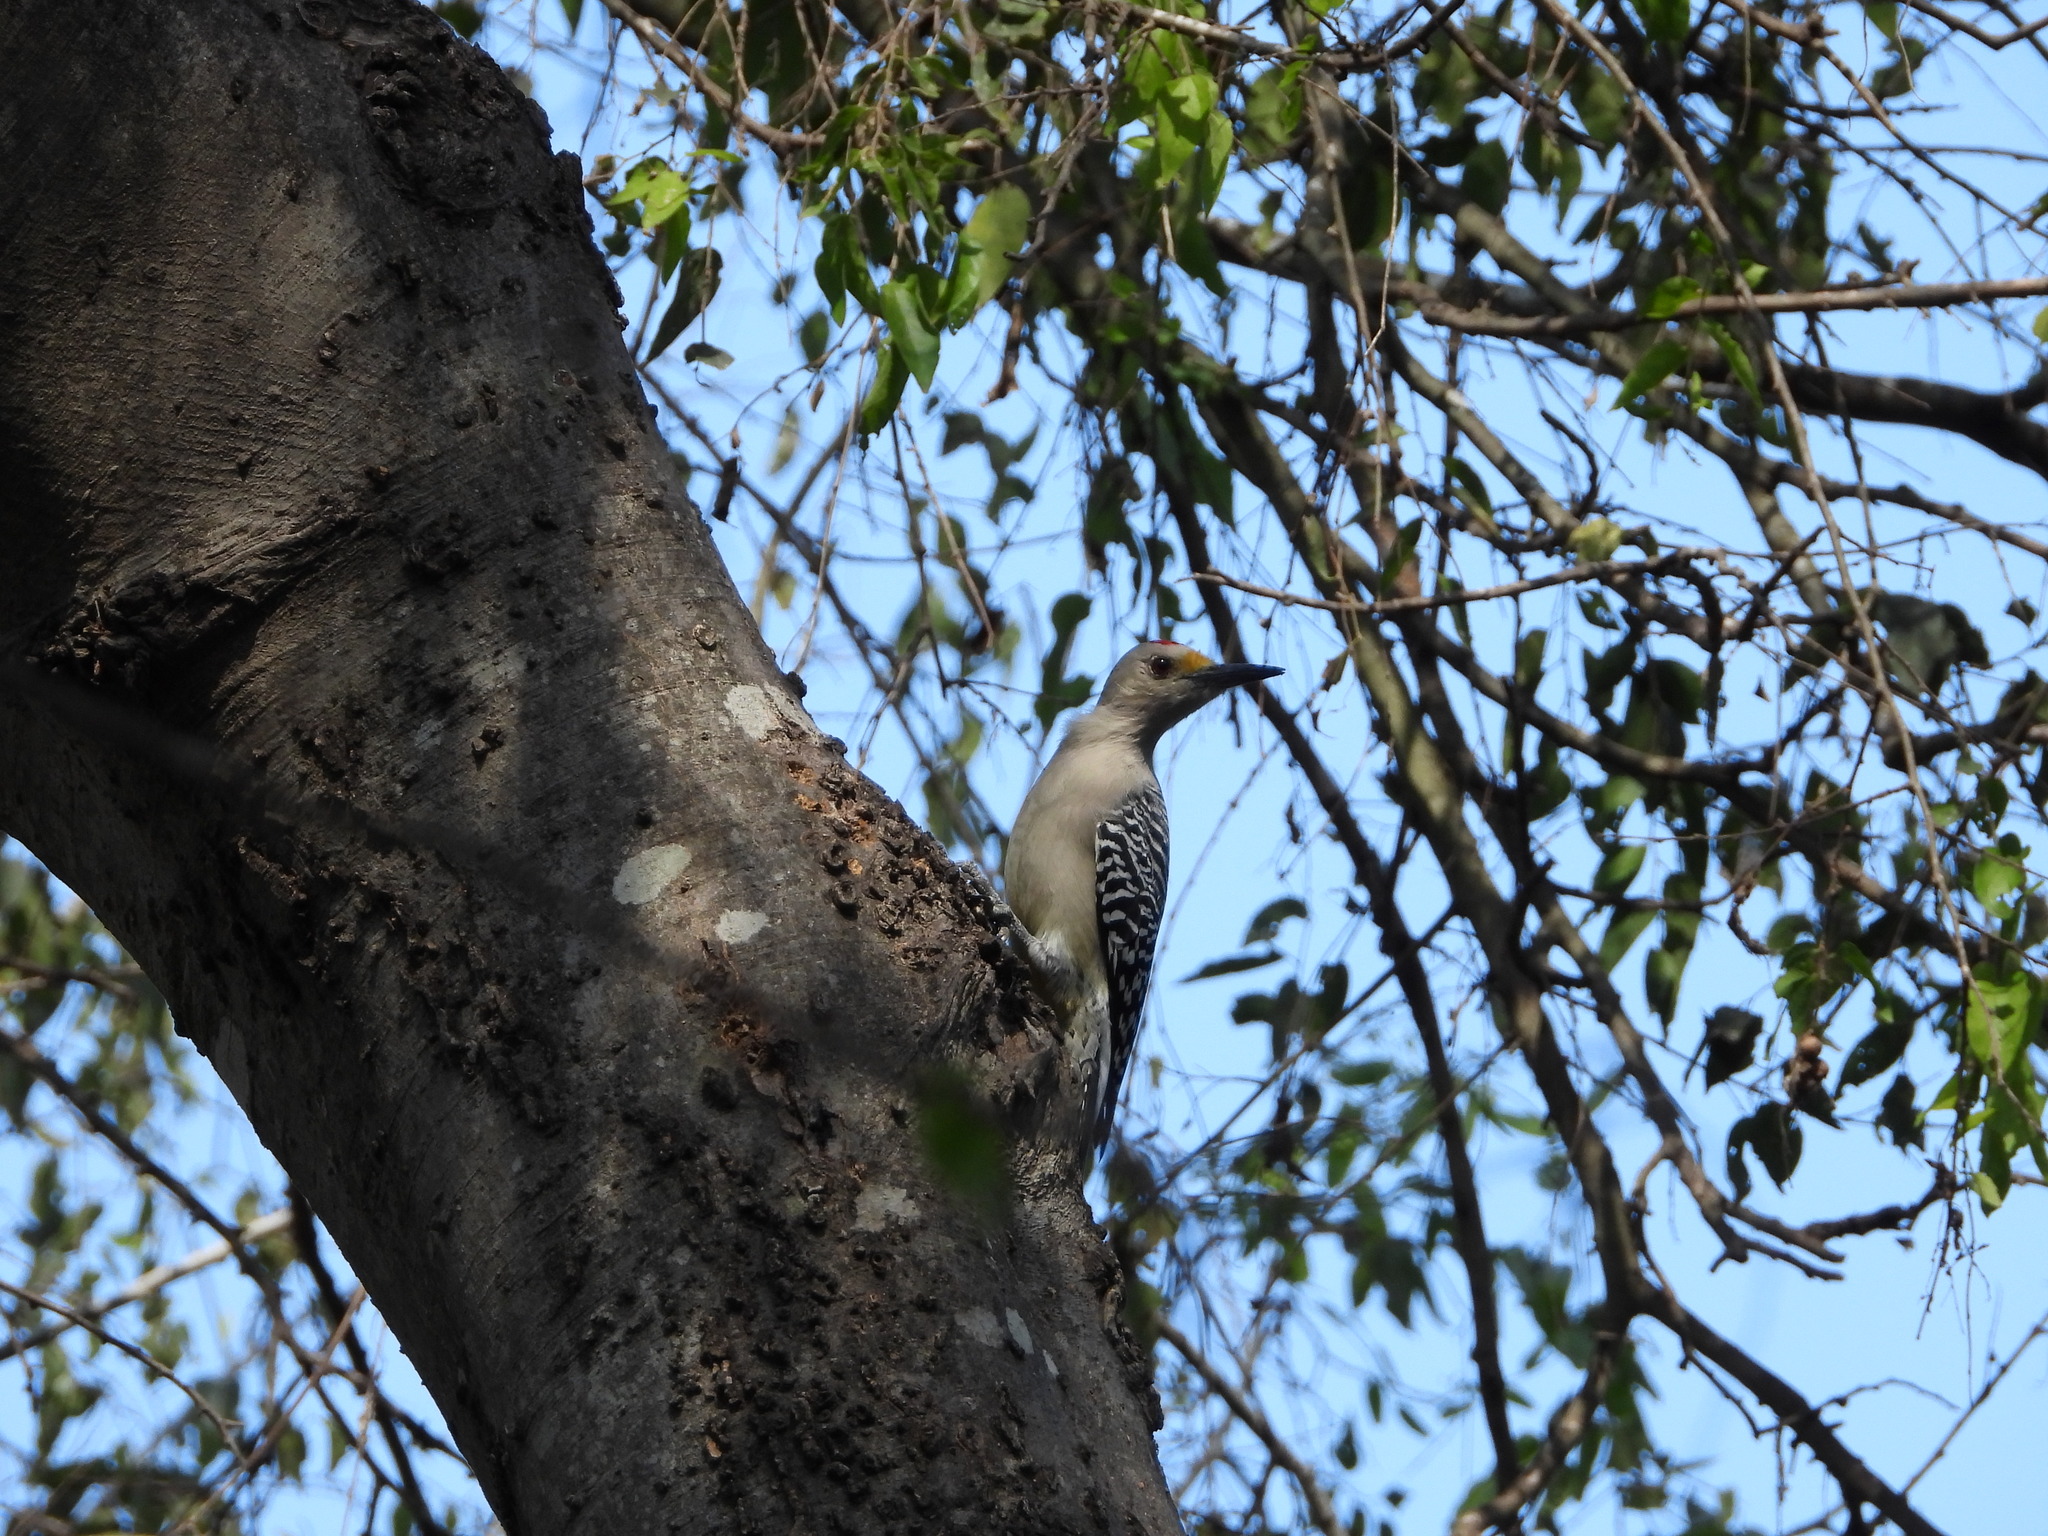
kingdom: Animalia
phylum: Chordata
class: Aves
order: Piciformes
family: Picidae
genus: Melanerpes
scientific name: Melanerpes aurifrons
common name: Golden-fronted woodpecker
